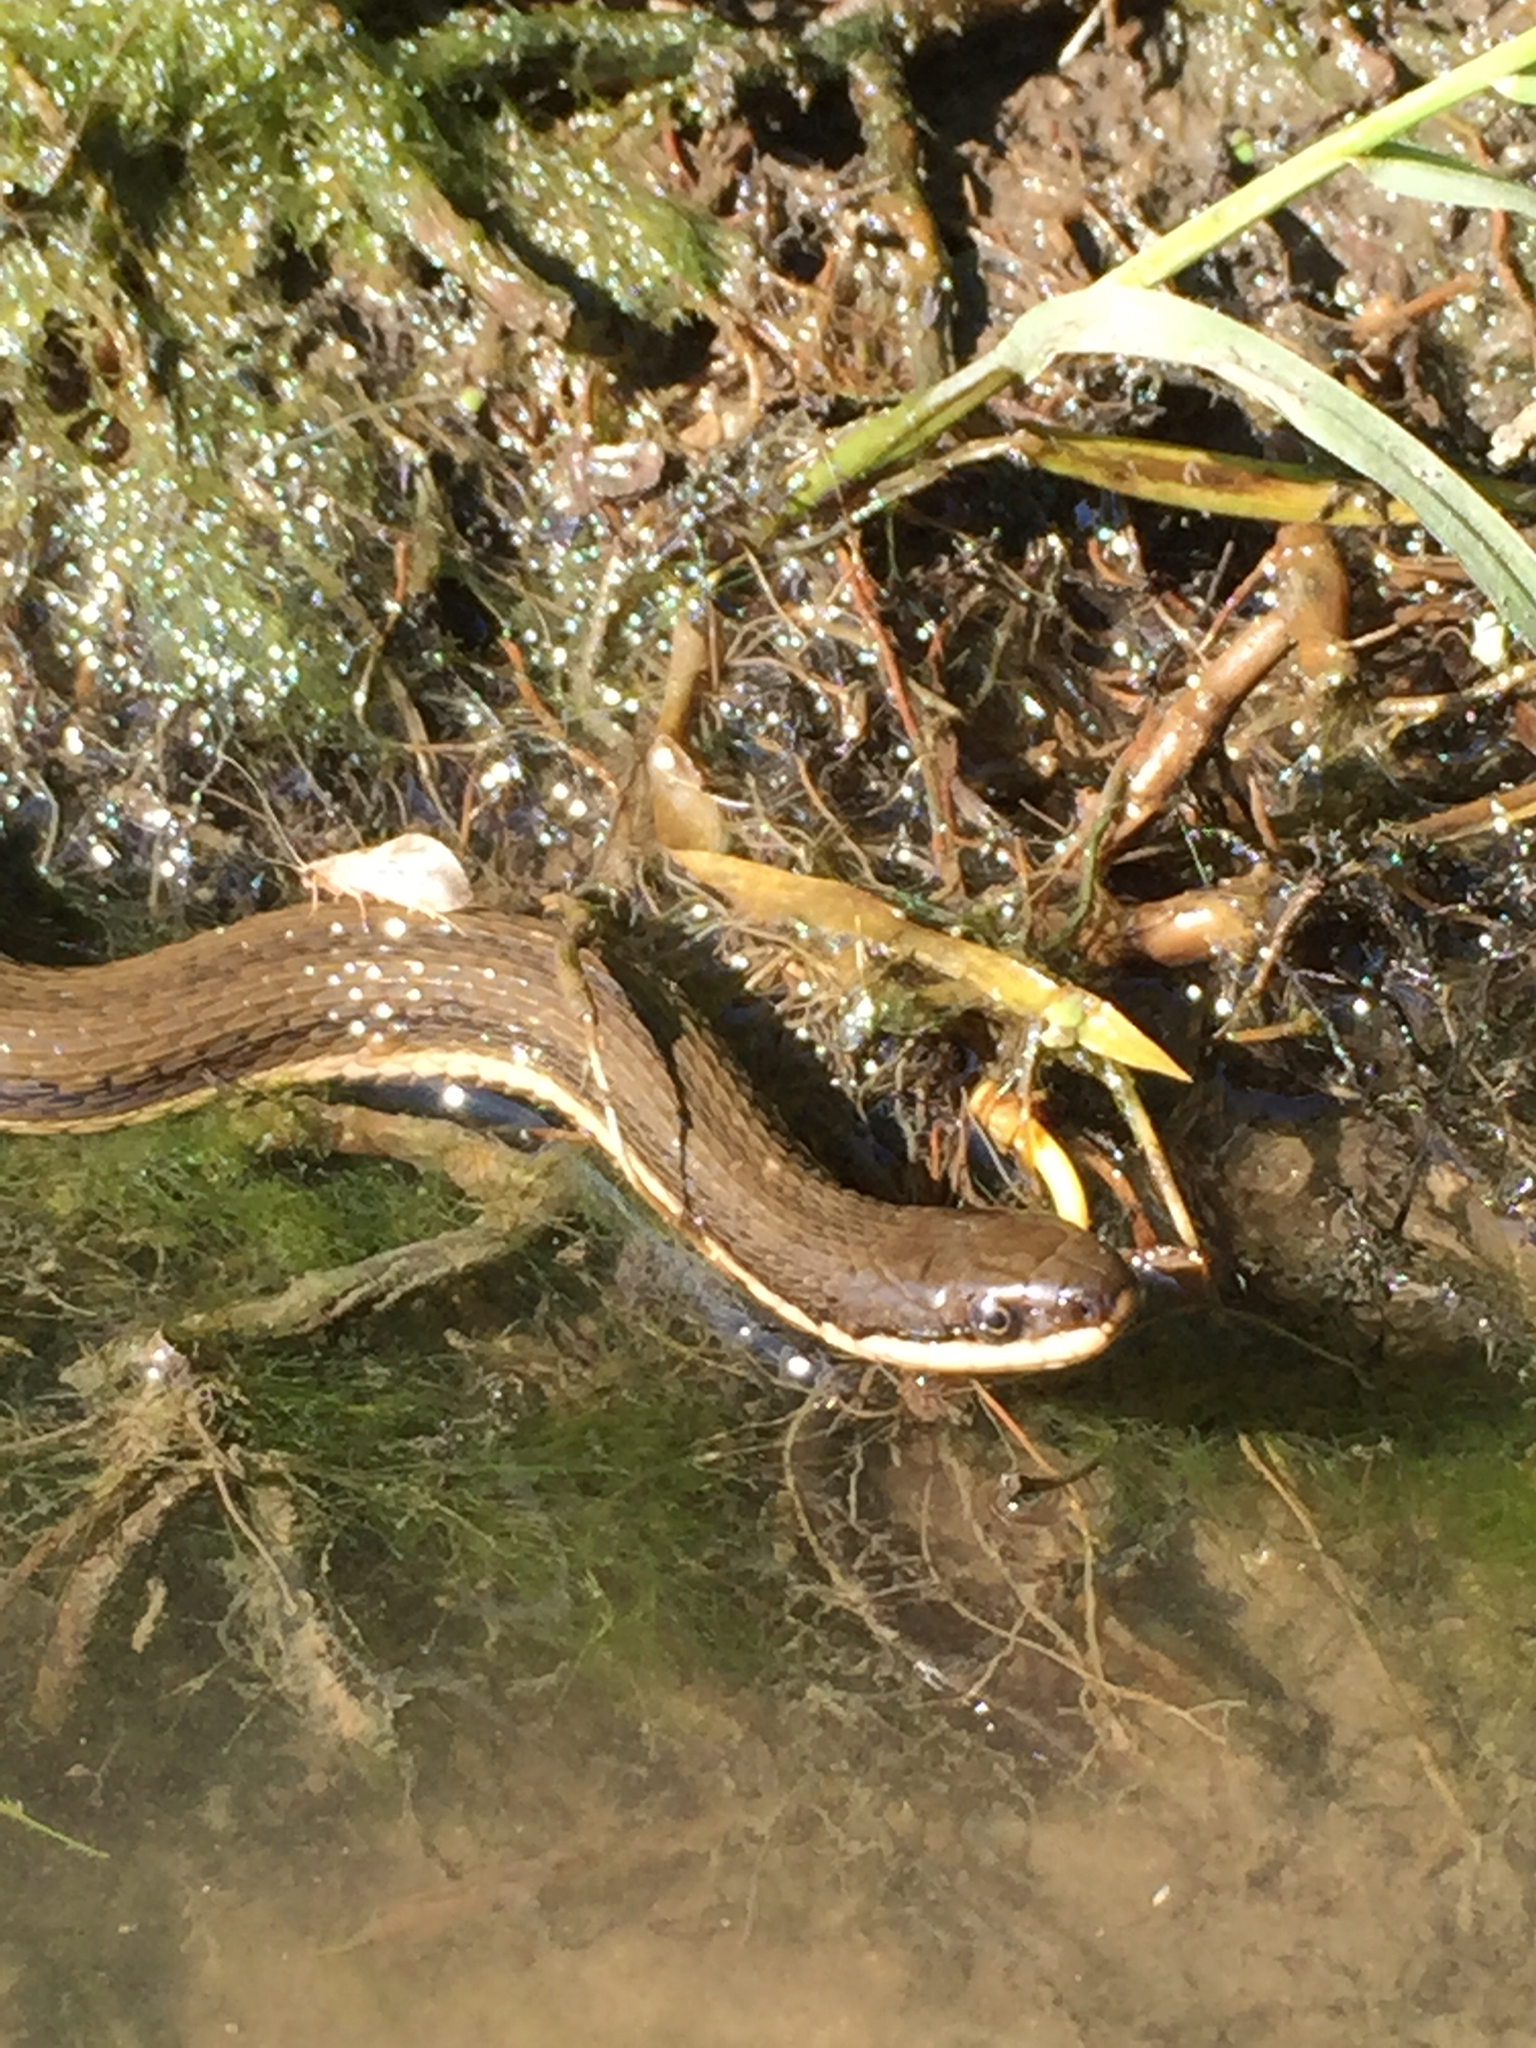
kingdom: Animalia
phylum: Chordata
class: Squamata
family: Colubridae
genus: Regina
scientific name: Regina septemvittata
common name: Queen snake
